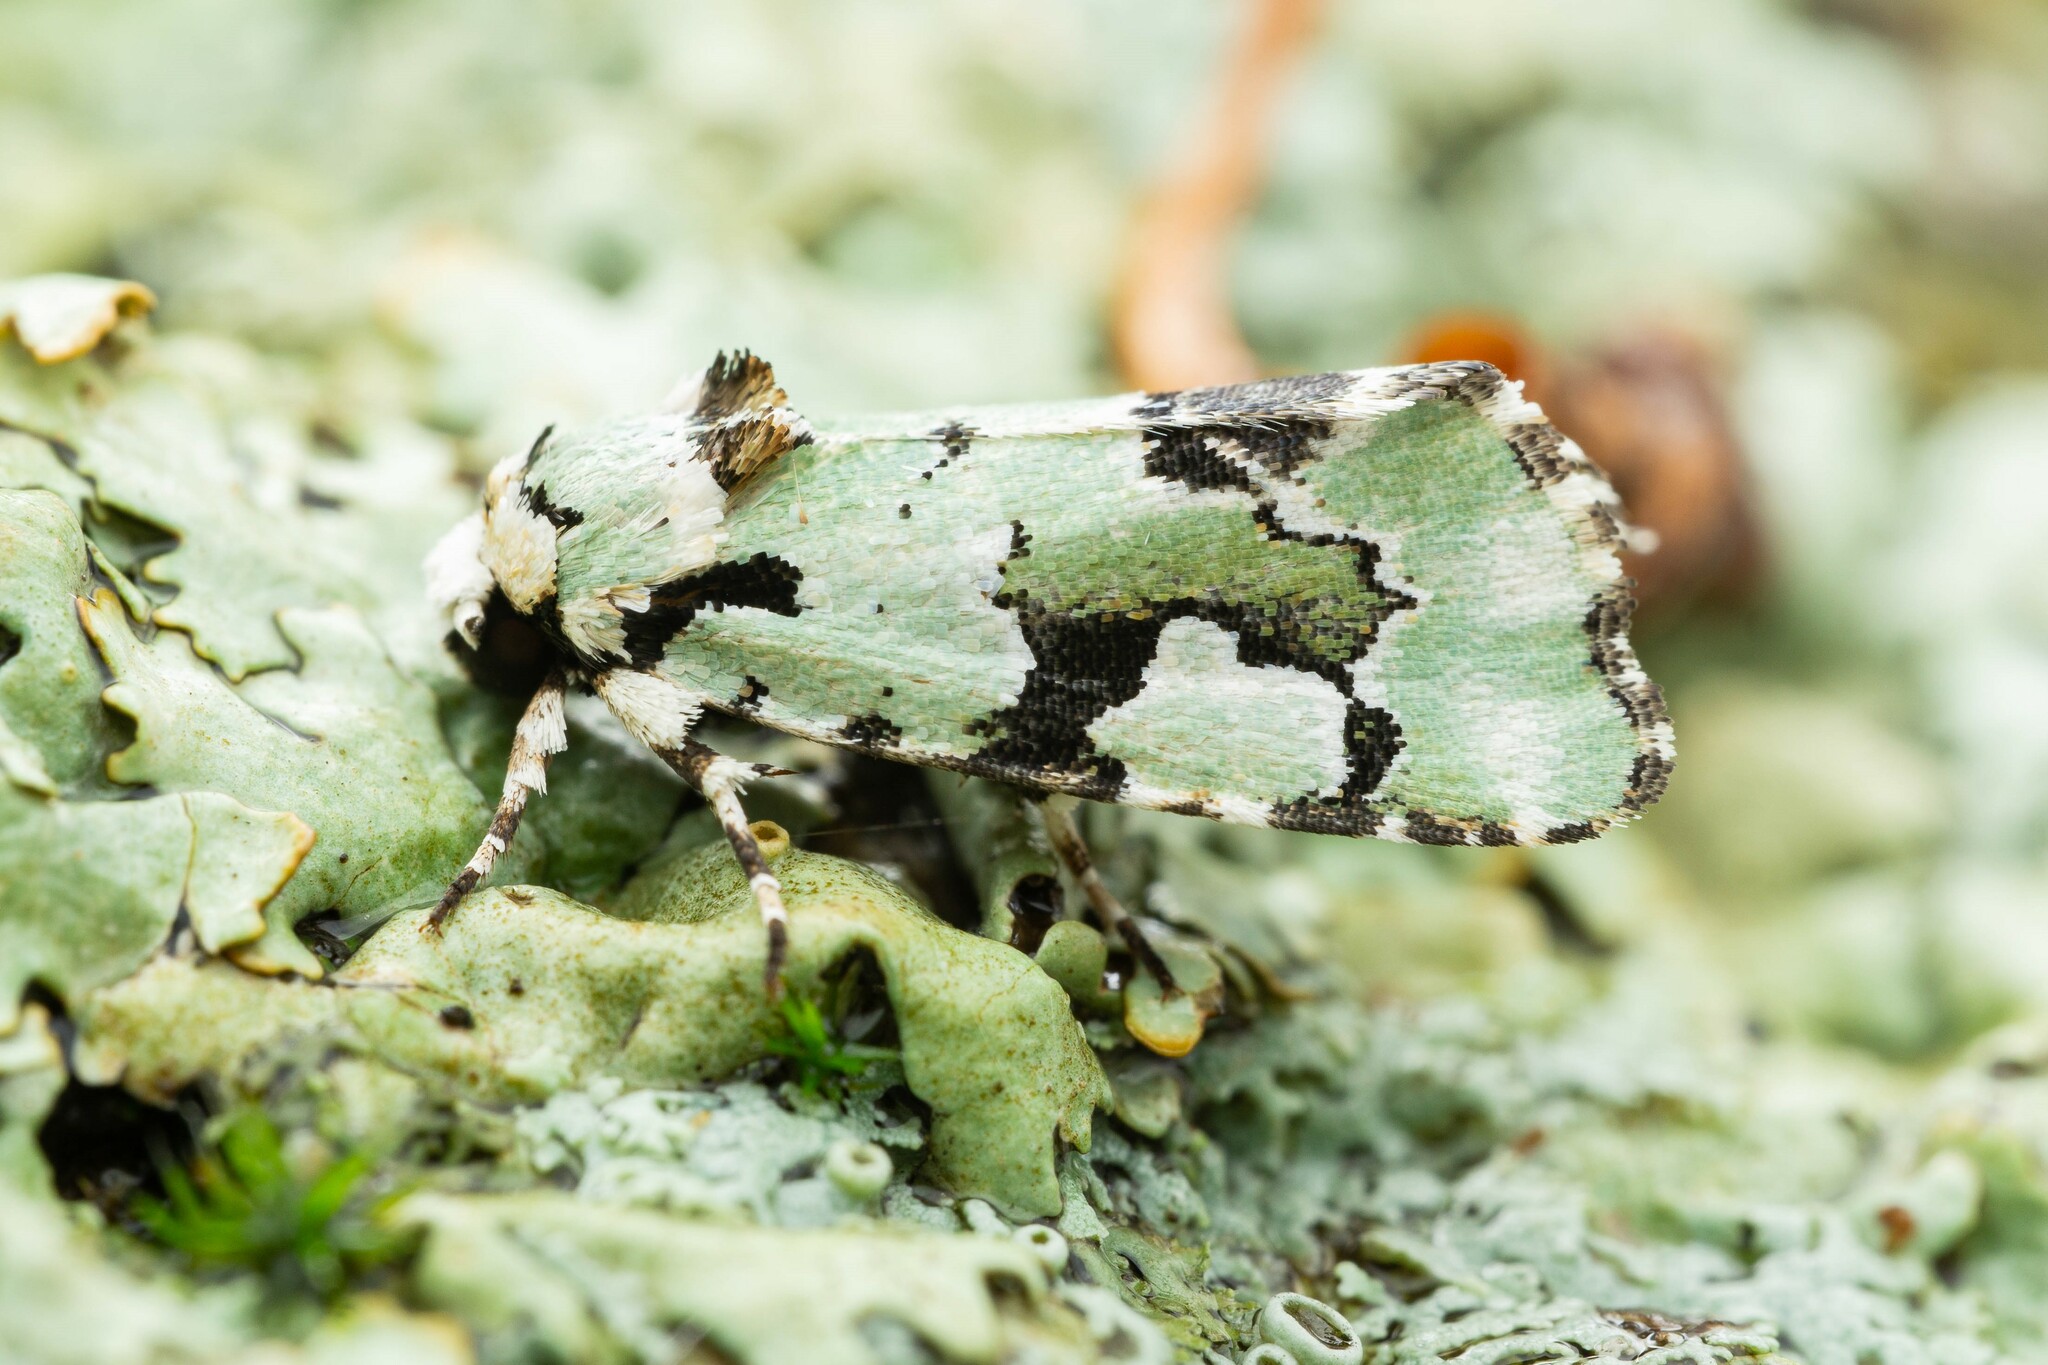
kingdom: Animalia
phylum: Arthropoda
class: Insecta
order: Lepidoptera
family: Noctuidae
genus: Emarginea
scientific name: Emarginea percara
